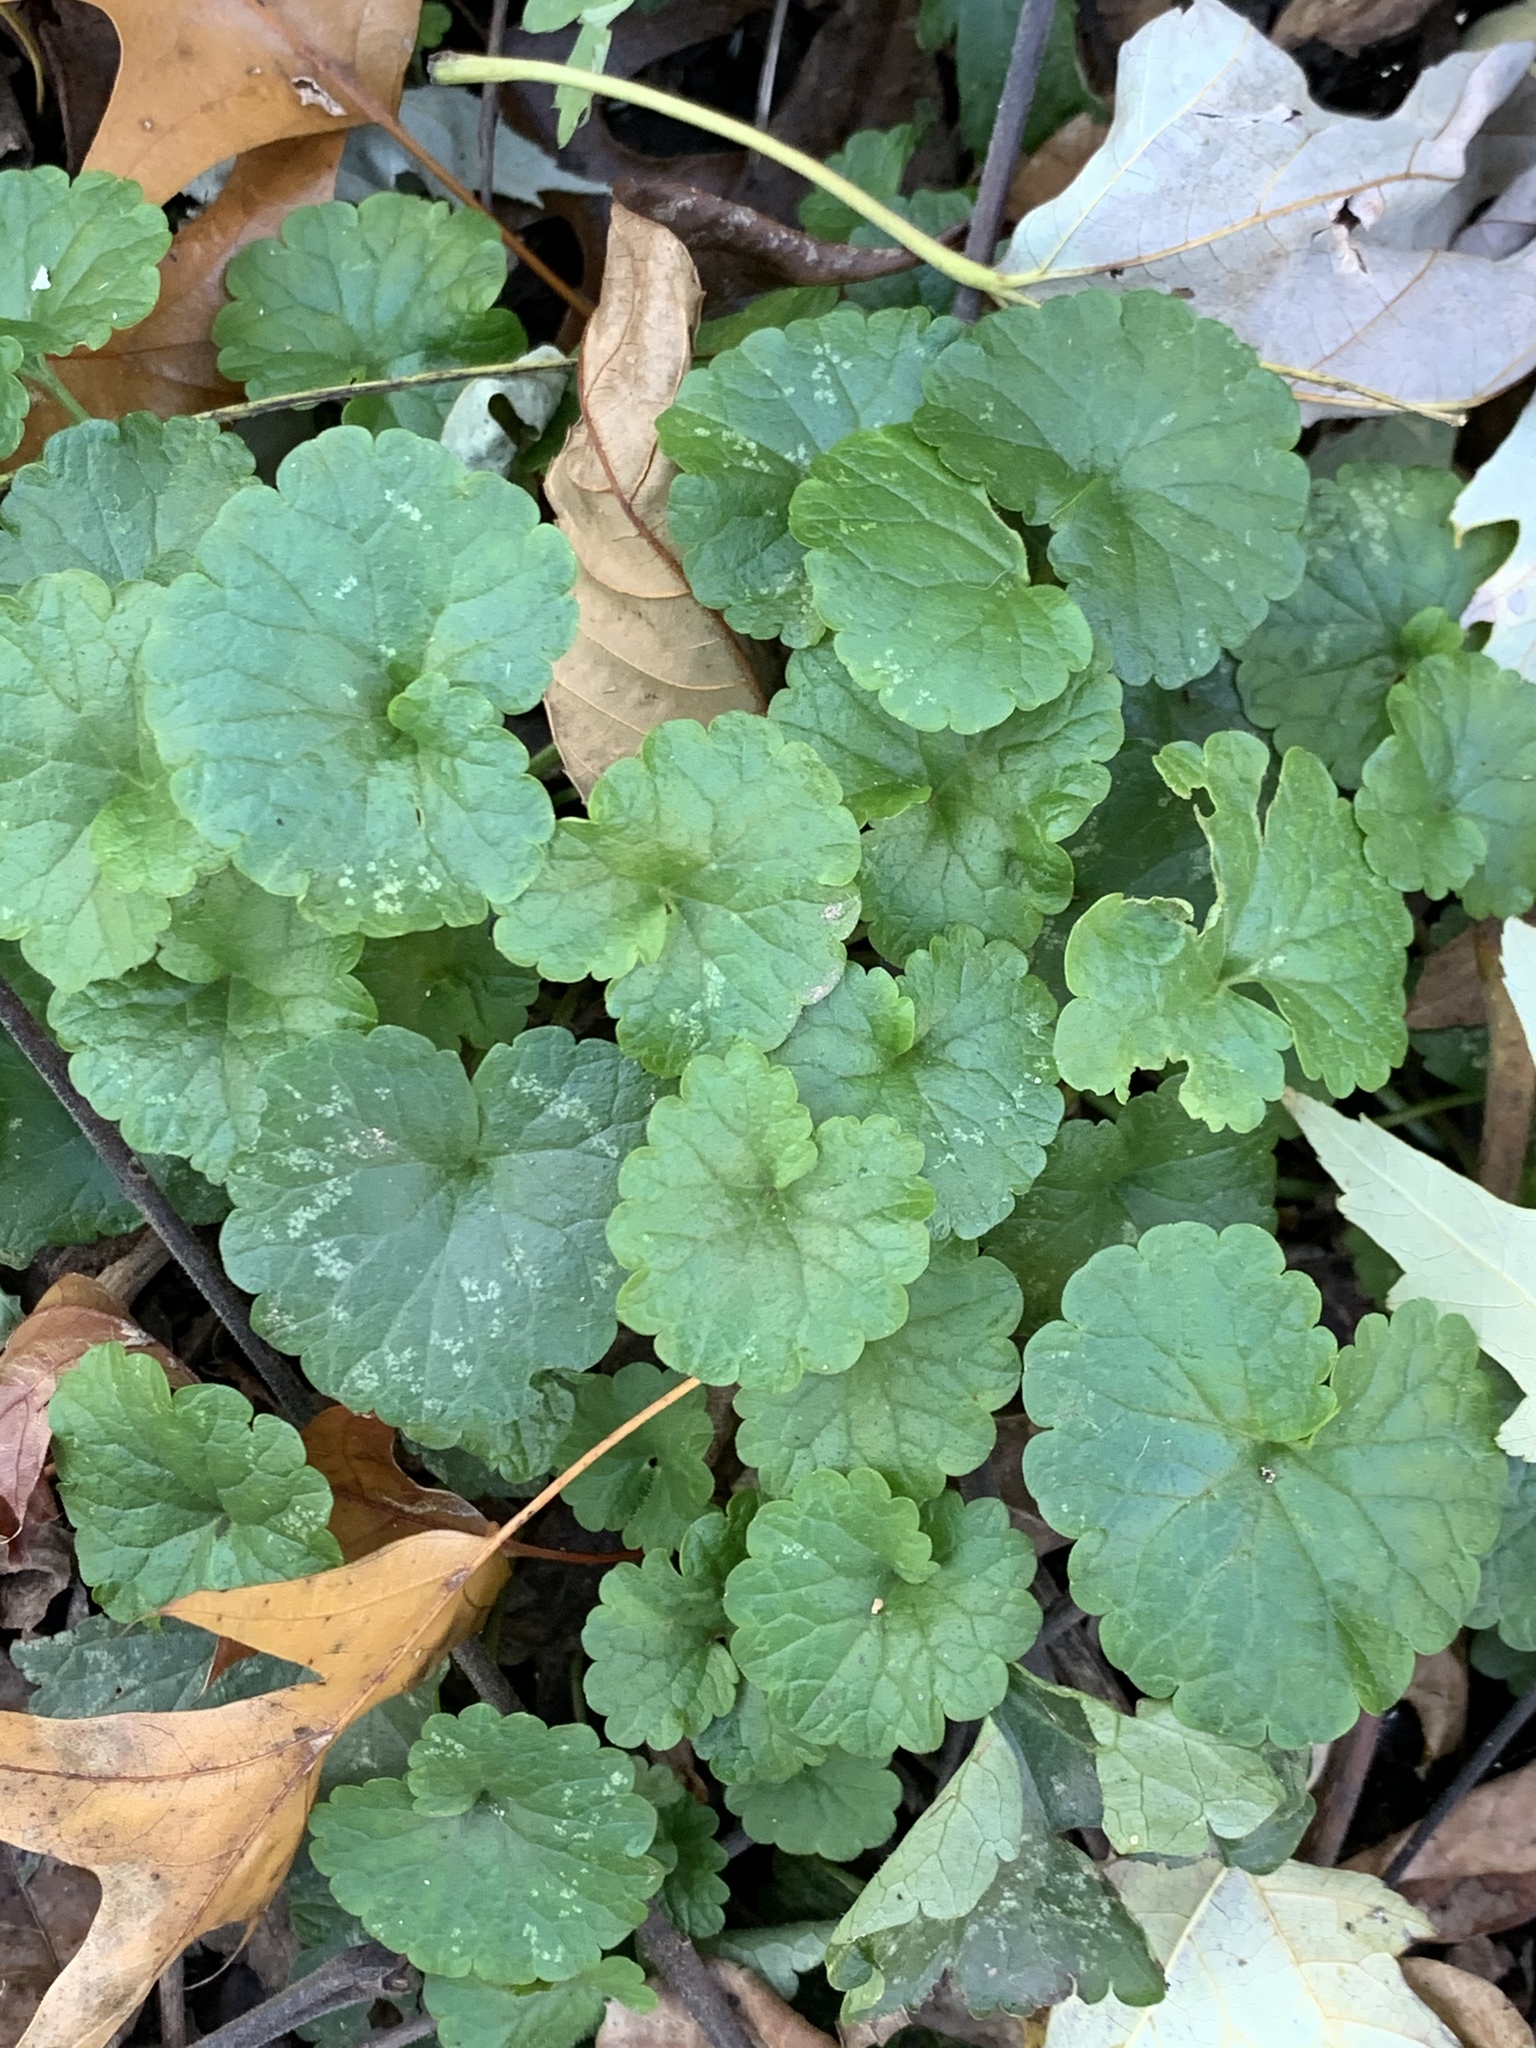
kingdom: Plantae
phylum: Tracheophyta
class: Magnoliopsida
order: Lamiales
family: Lamiaceae
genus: Glechoma
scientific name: Glechoma hederacea
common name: Ground ivy
